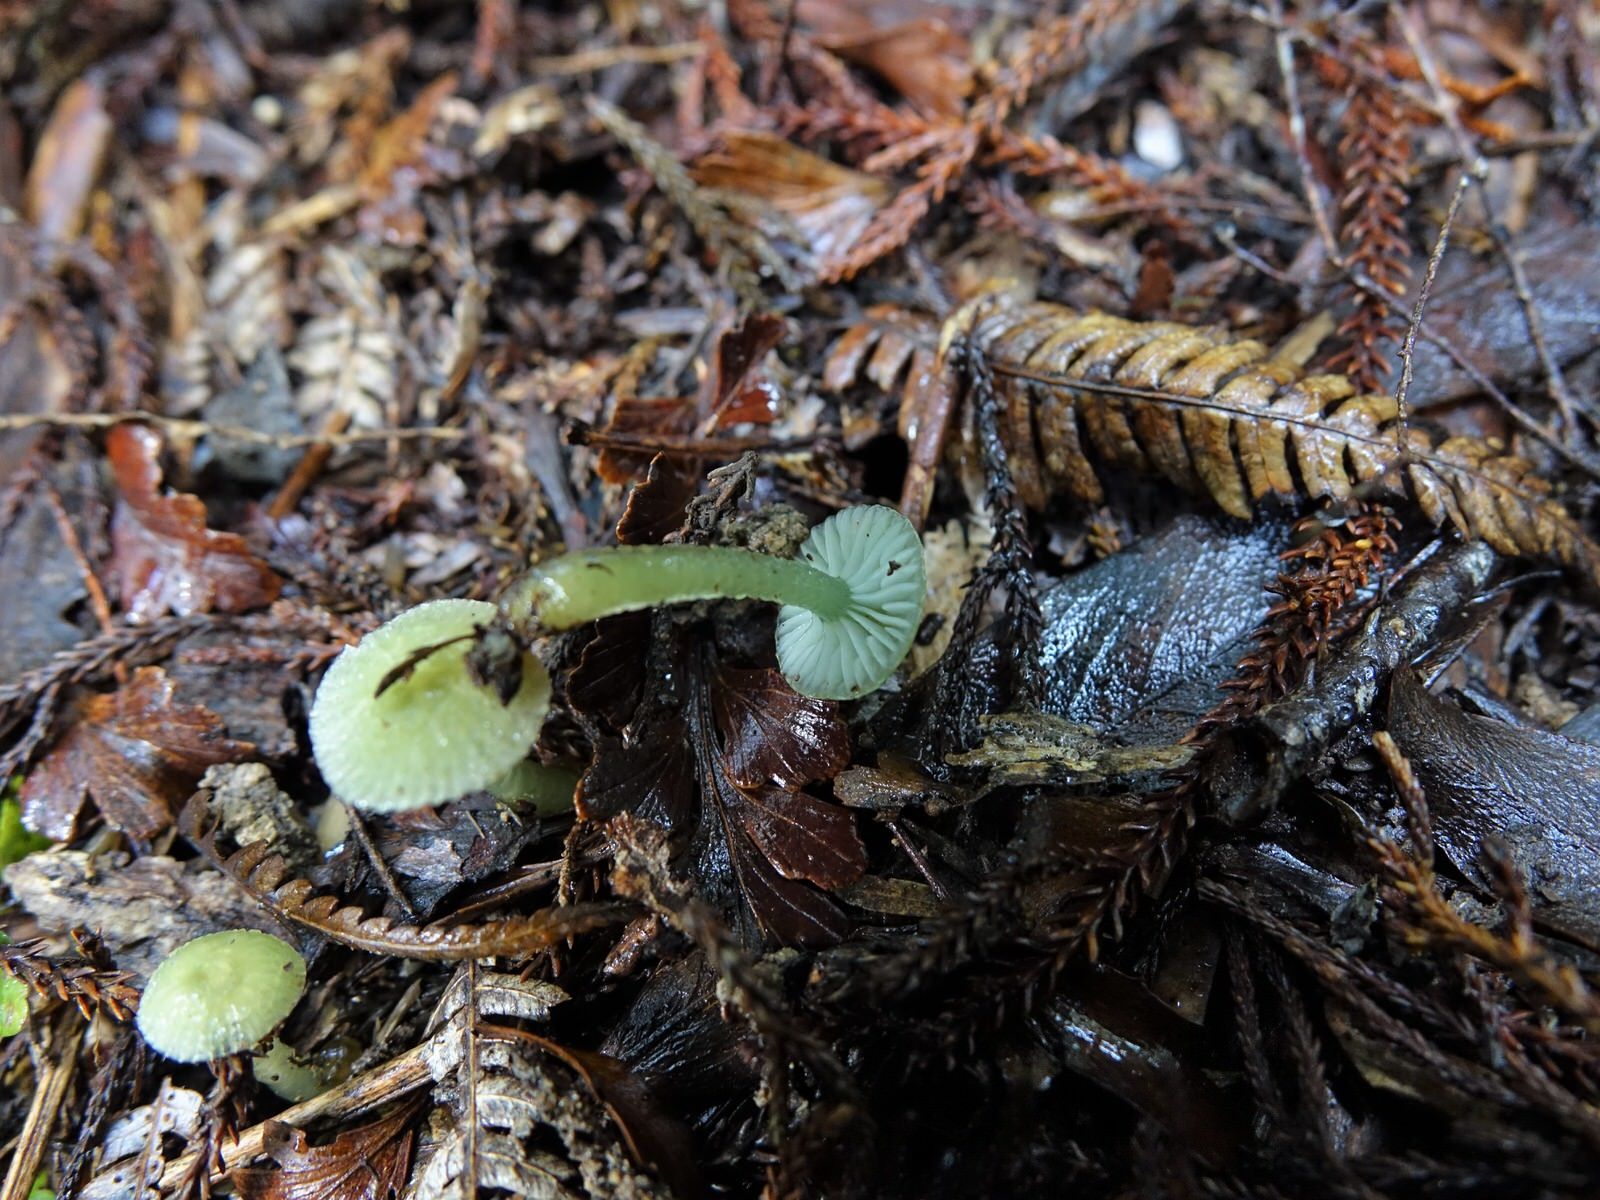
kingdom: Fungi
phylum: Basidiomycota
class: Agaricomycetes
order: Agaricales
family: Hygrophoraceae
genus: Gliophorus
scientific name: Gliophorus graminicolor
